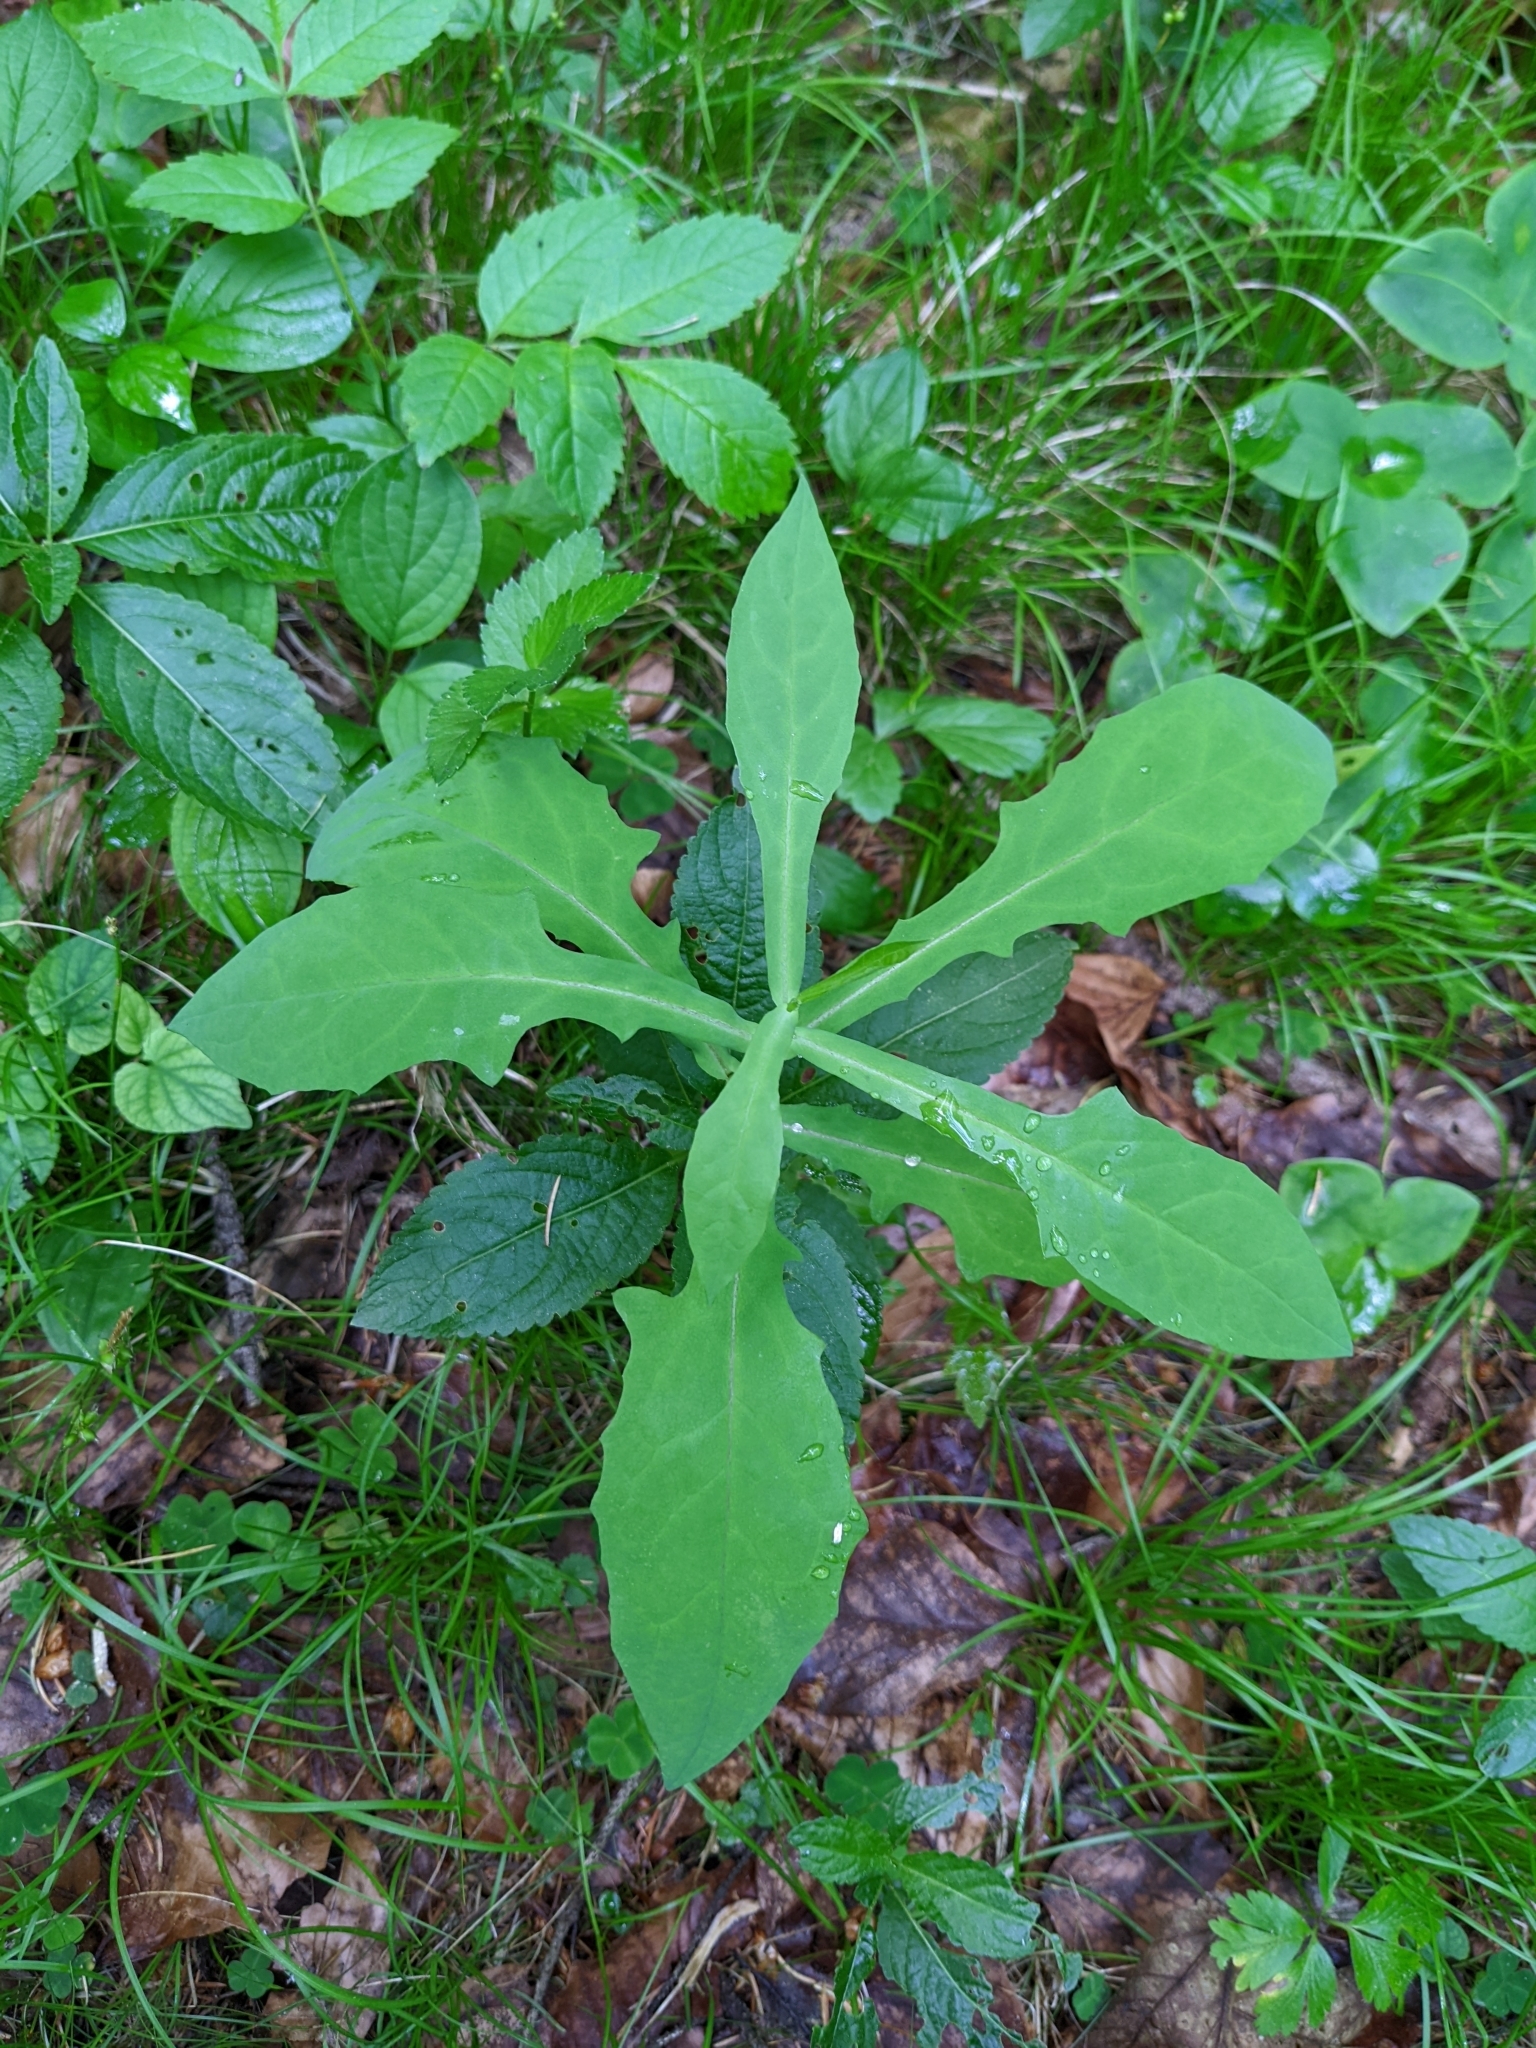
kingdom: Plantae
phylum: Tracheophyta
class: Magnoliopsida
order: Asterales
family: Asteraceae
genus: Prenanthes
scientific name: Prenanthes purpurea
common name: Purple lettuce
